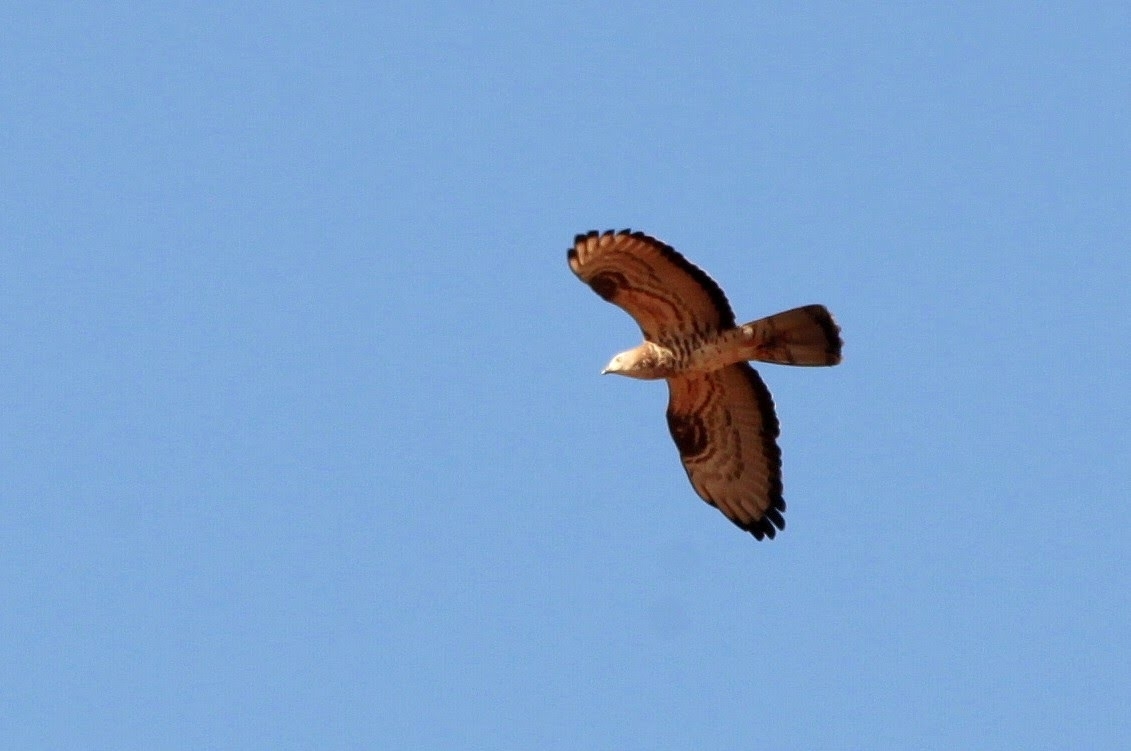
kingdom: Animalia
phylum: Chordata
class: Aves
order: Accipitriformes
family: Accipitridae
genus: Pernis
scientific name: Pernis apivorus
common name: European honey buzzard
